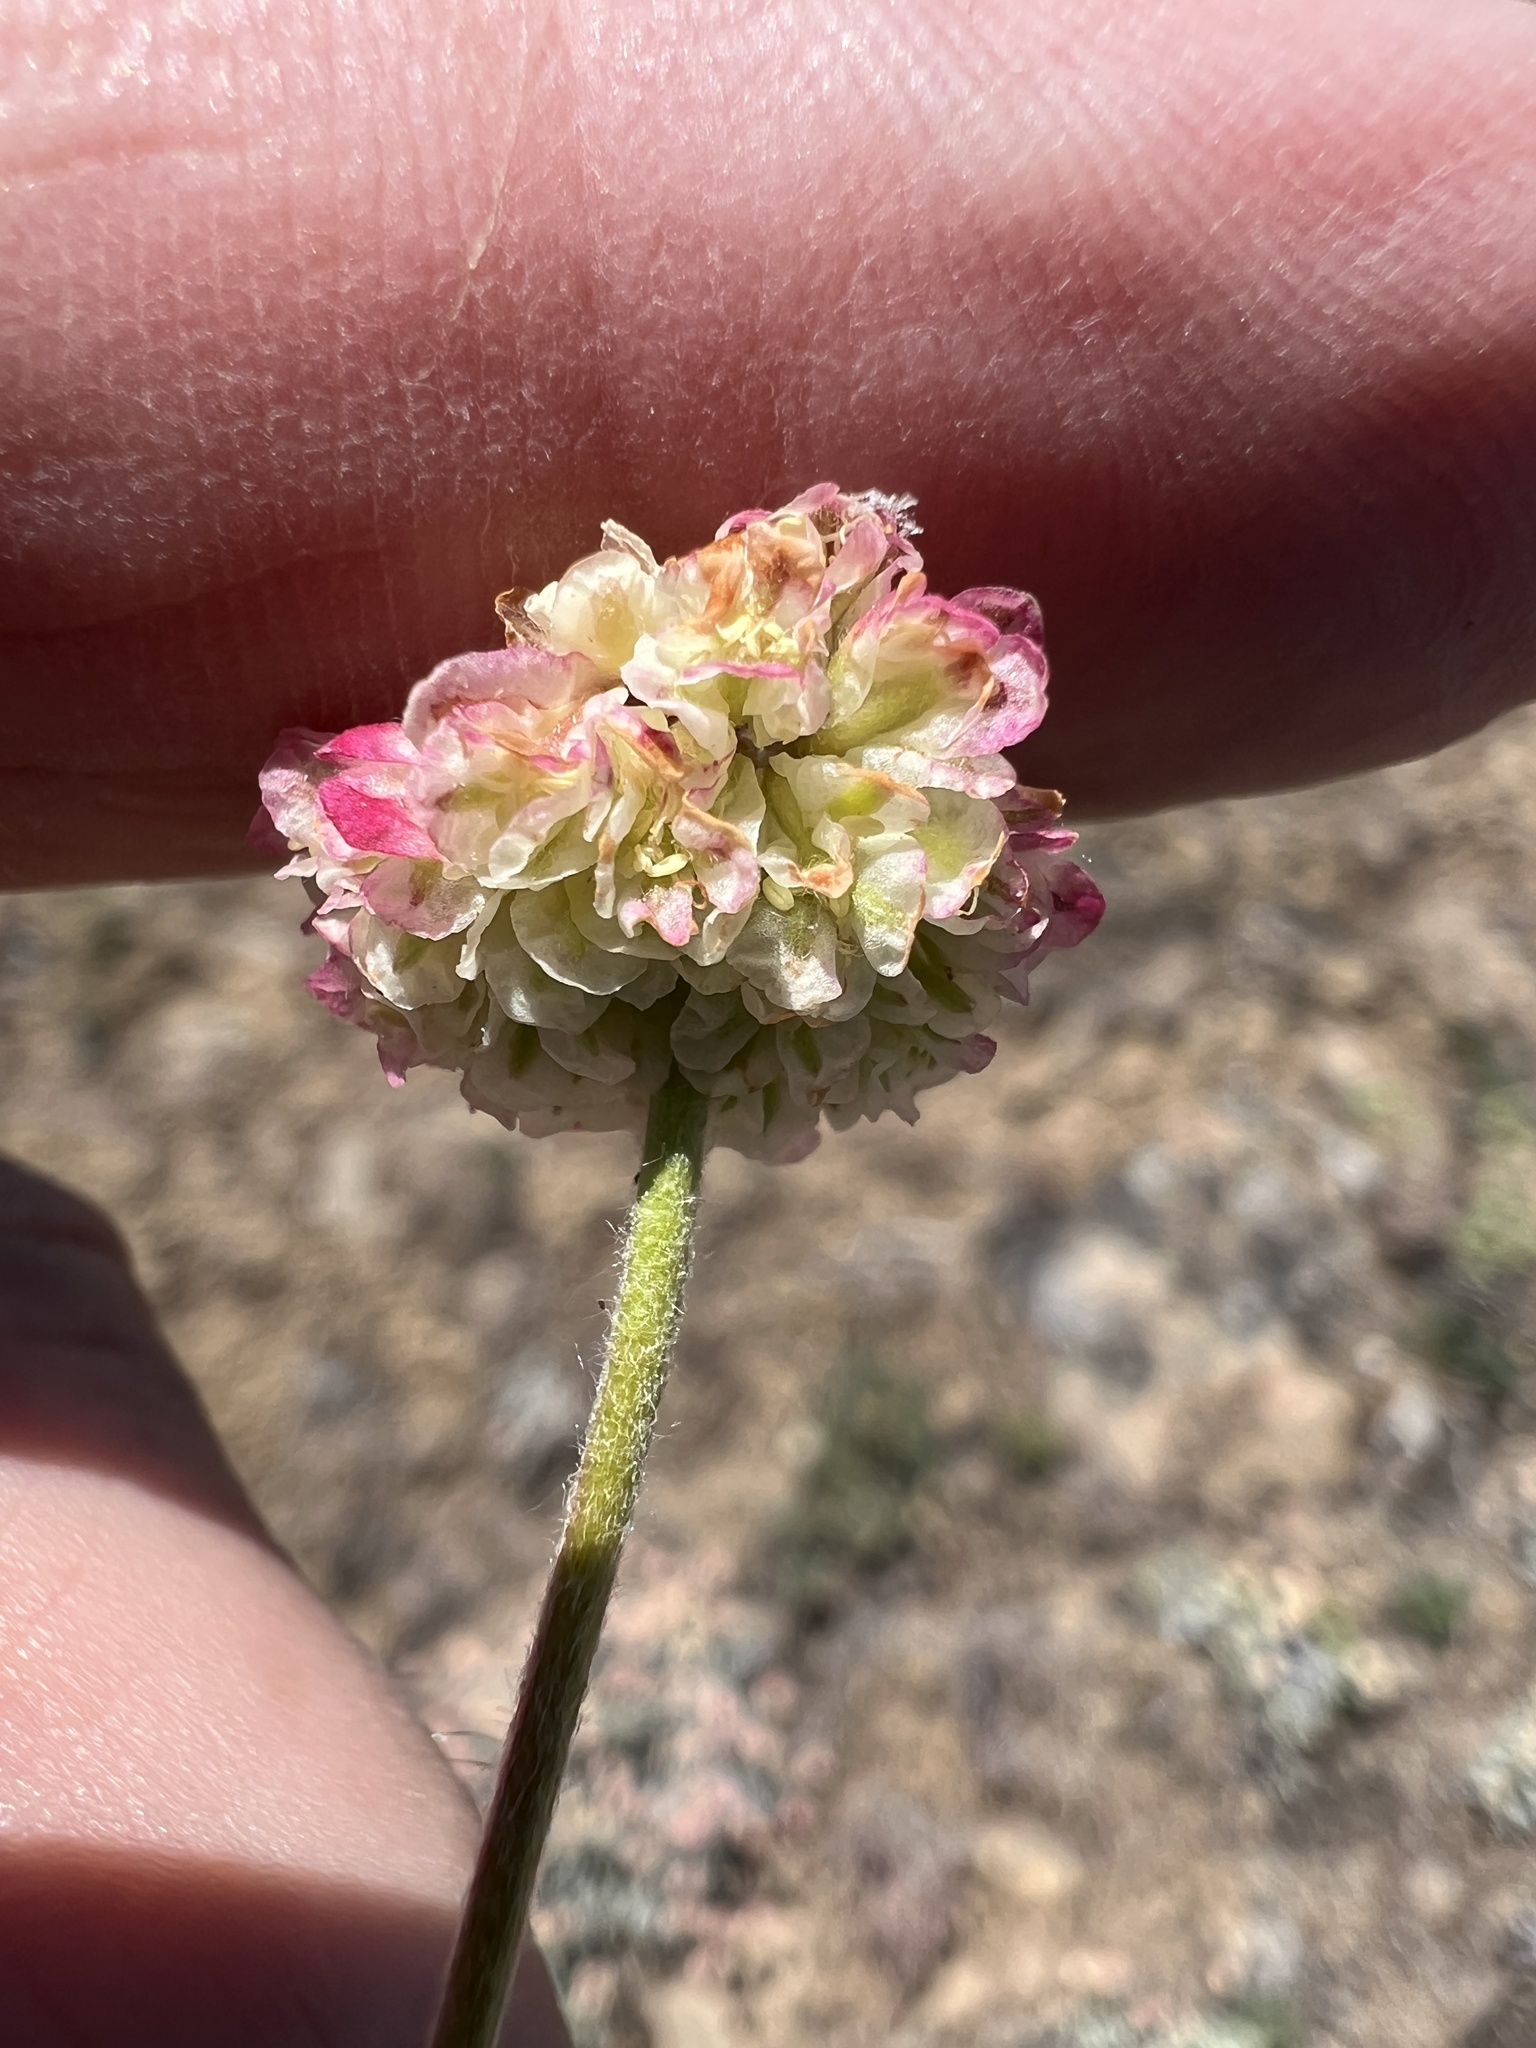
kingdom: Plantae
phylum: Tracheophyta
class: Magnoliopsida
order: Caryophyllales
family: Polygonaceae
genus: Eriogonum
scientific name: Eriogonum douglasii
